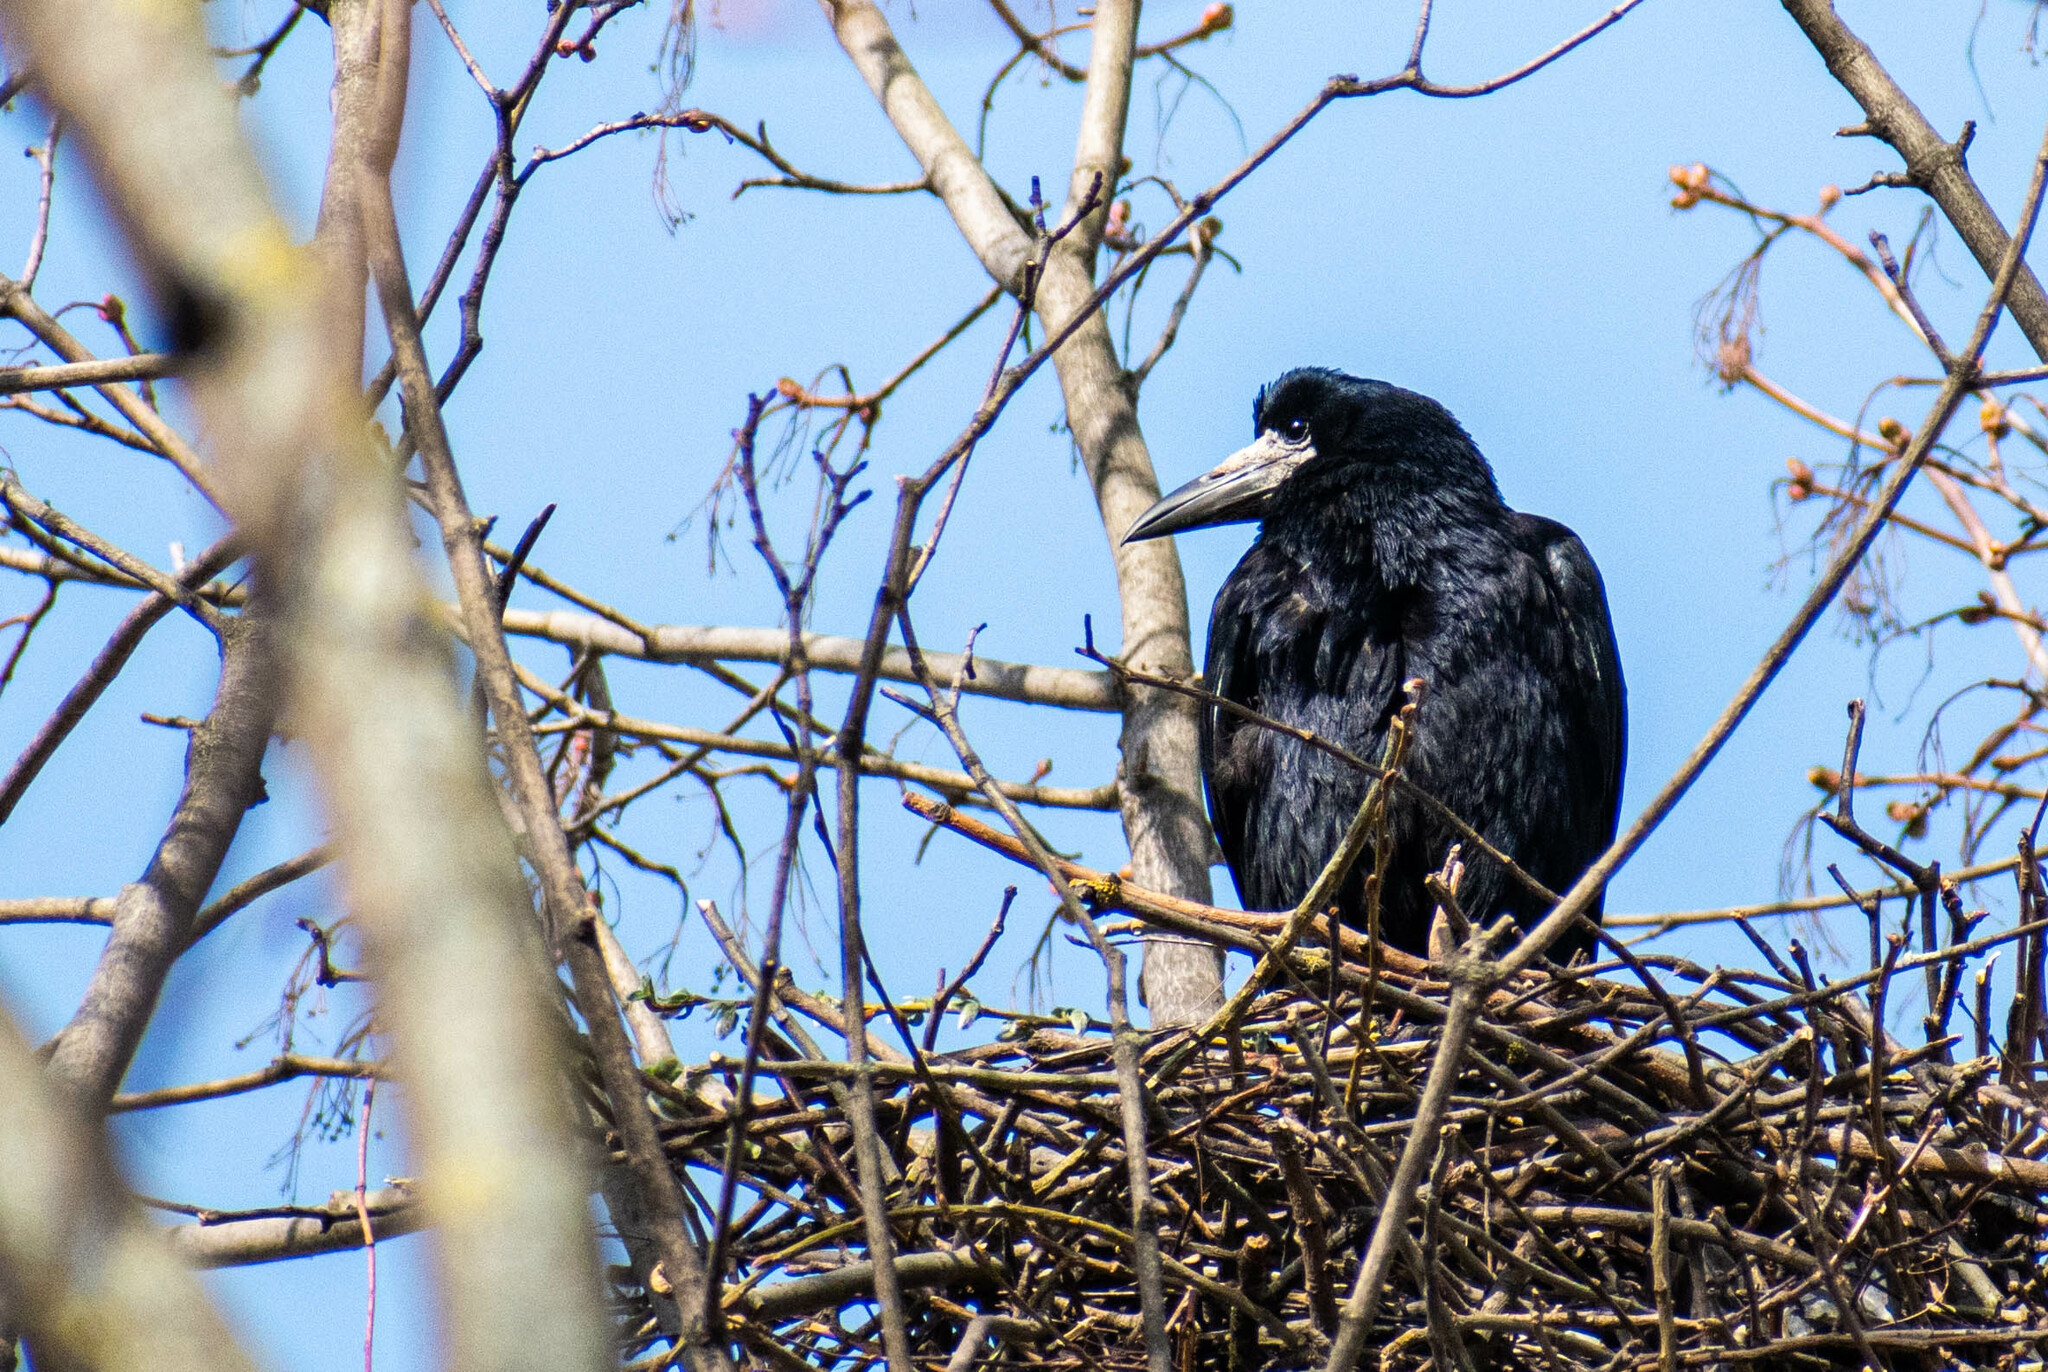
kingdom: Animalia
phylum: Chordata
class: Aves
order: Passeriformes
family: Corvidae
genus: Corvus
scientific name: Corvus frugilegus
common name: Rook
